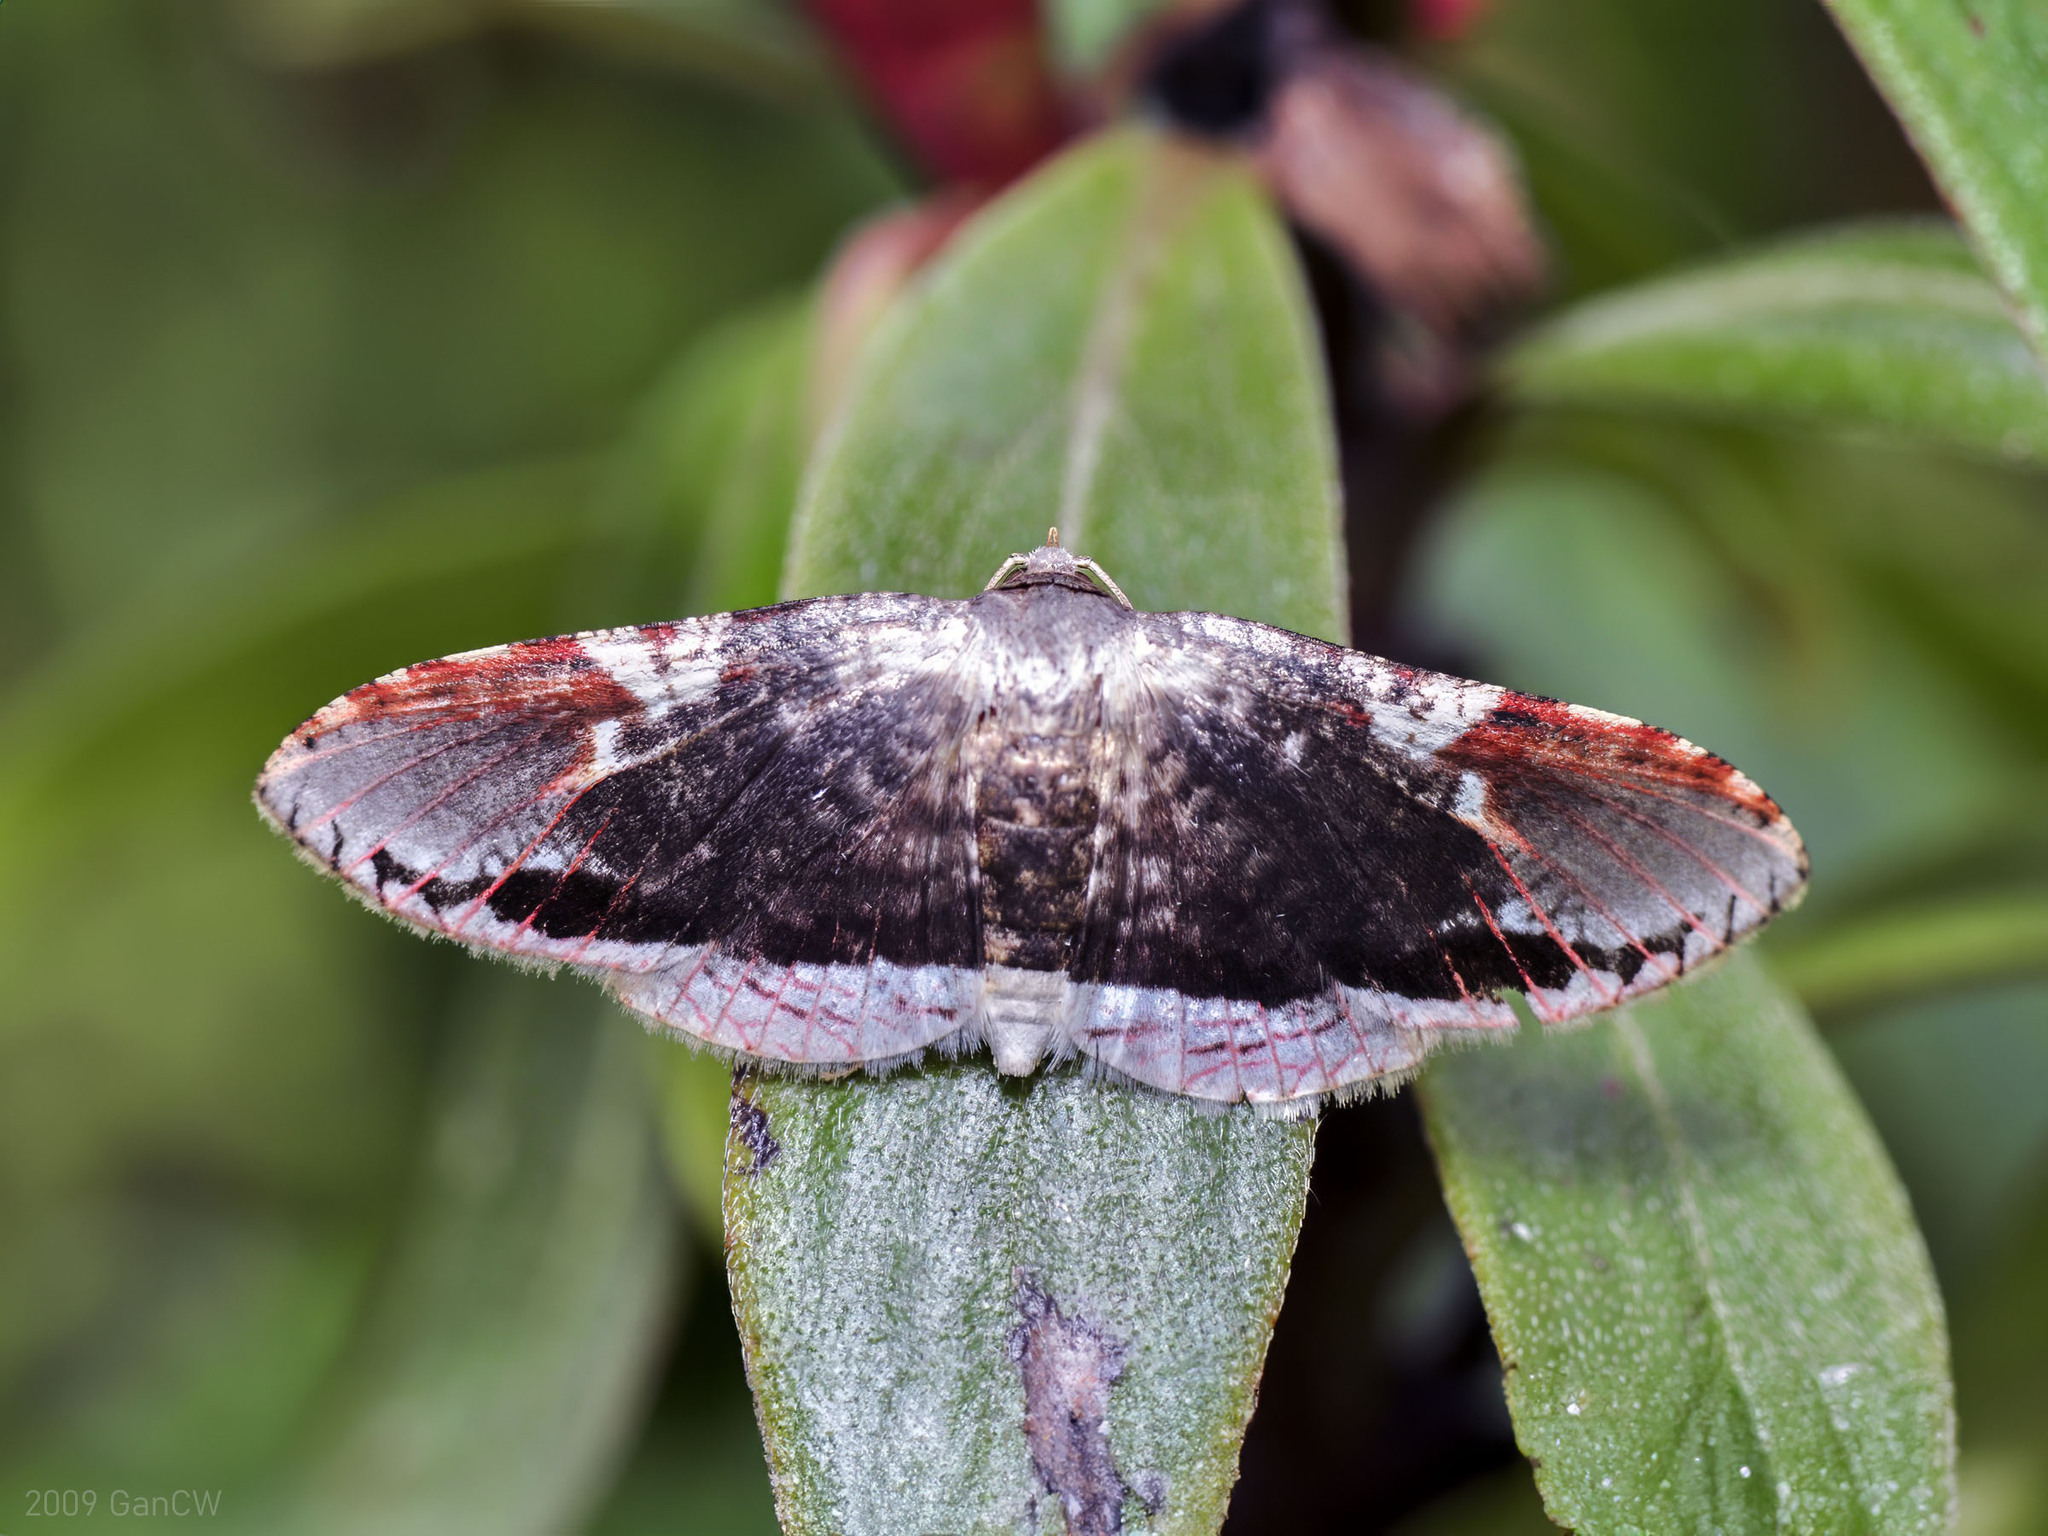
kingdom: Animalia
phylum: Arthropoda
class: Insecta
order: Lepidoptera
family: Thyrididae
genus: Rhodoneura
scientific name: Rhodoneura acaciusalis
